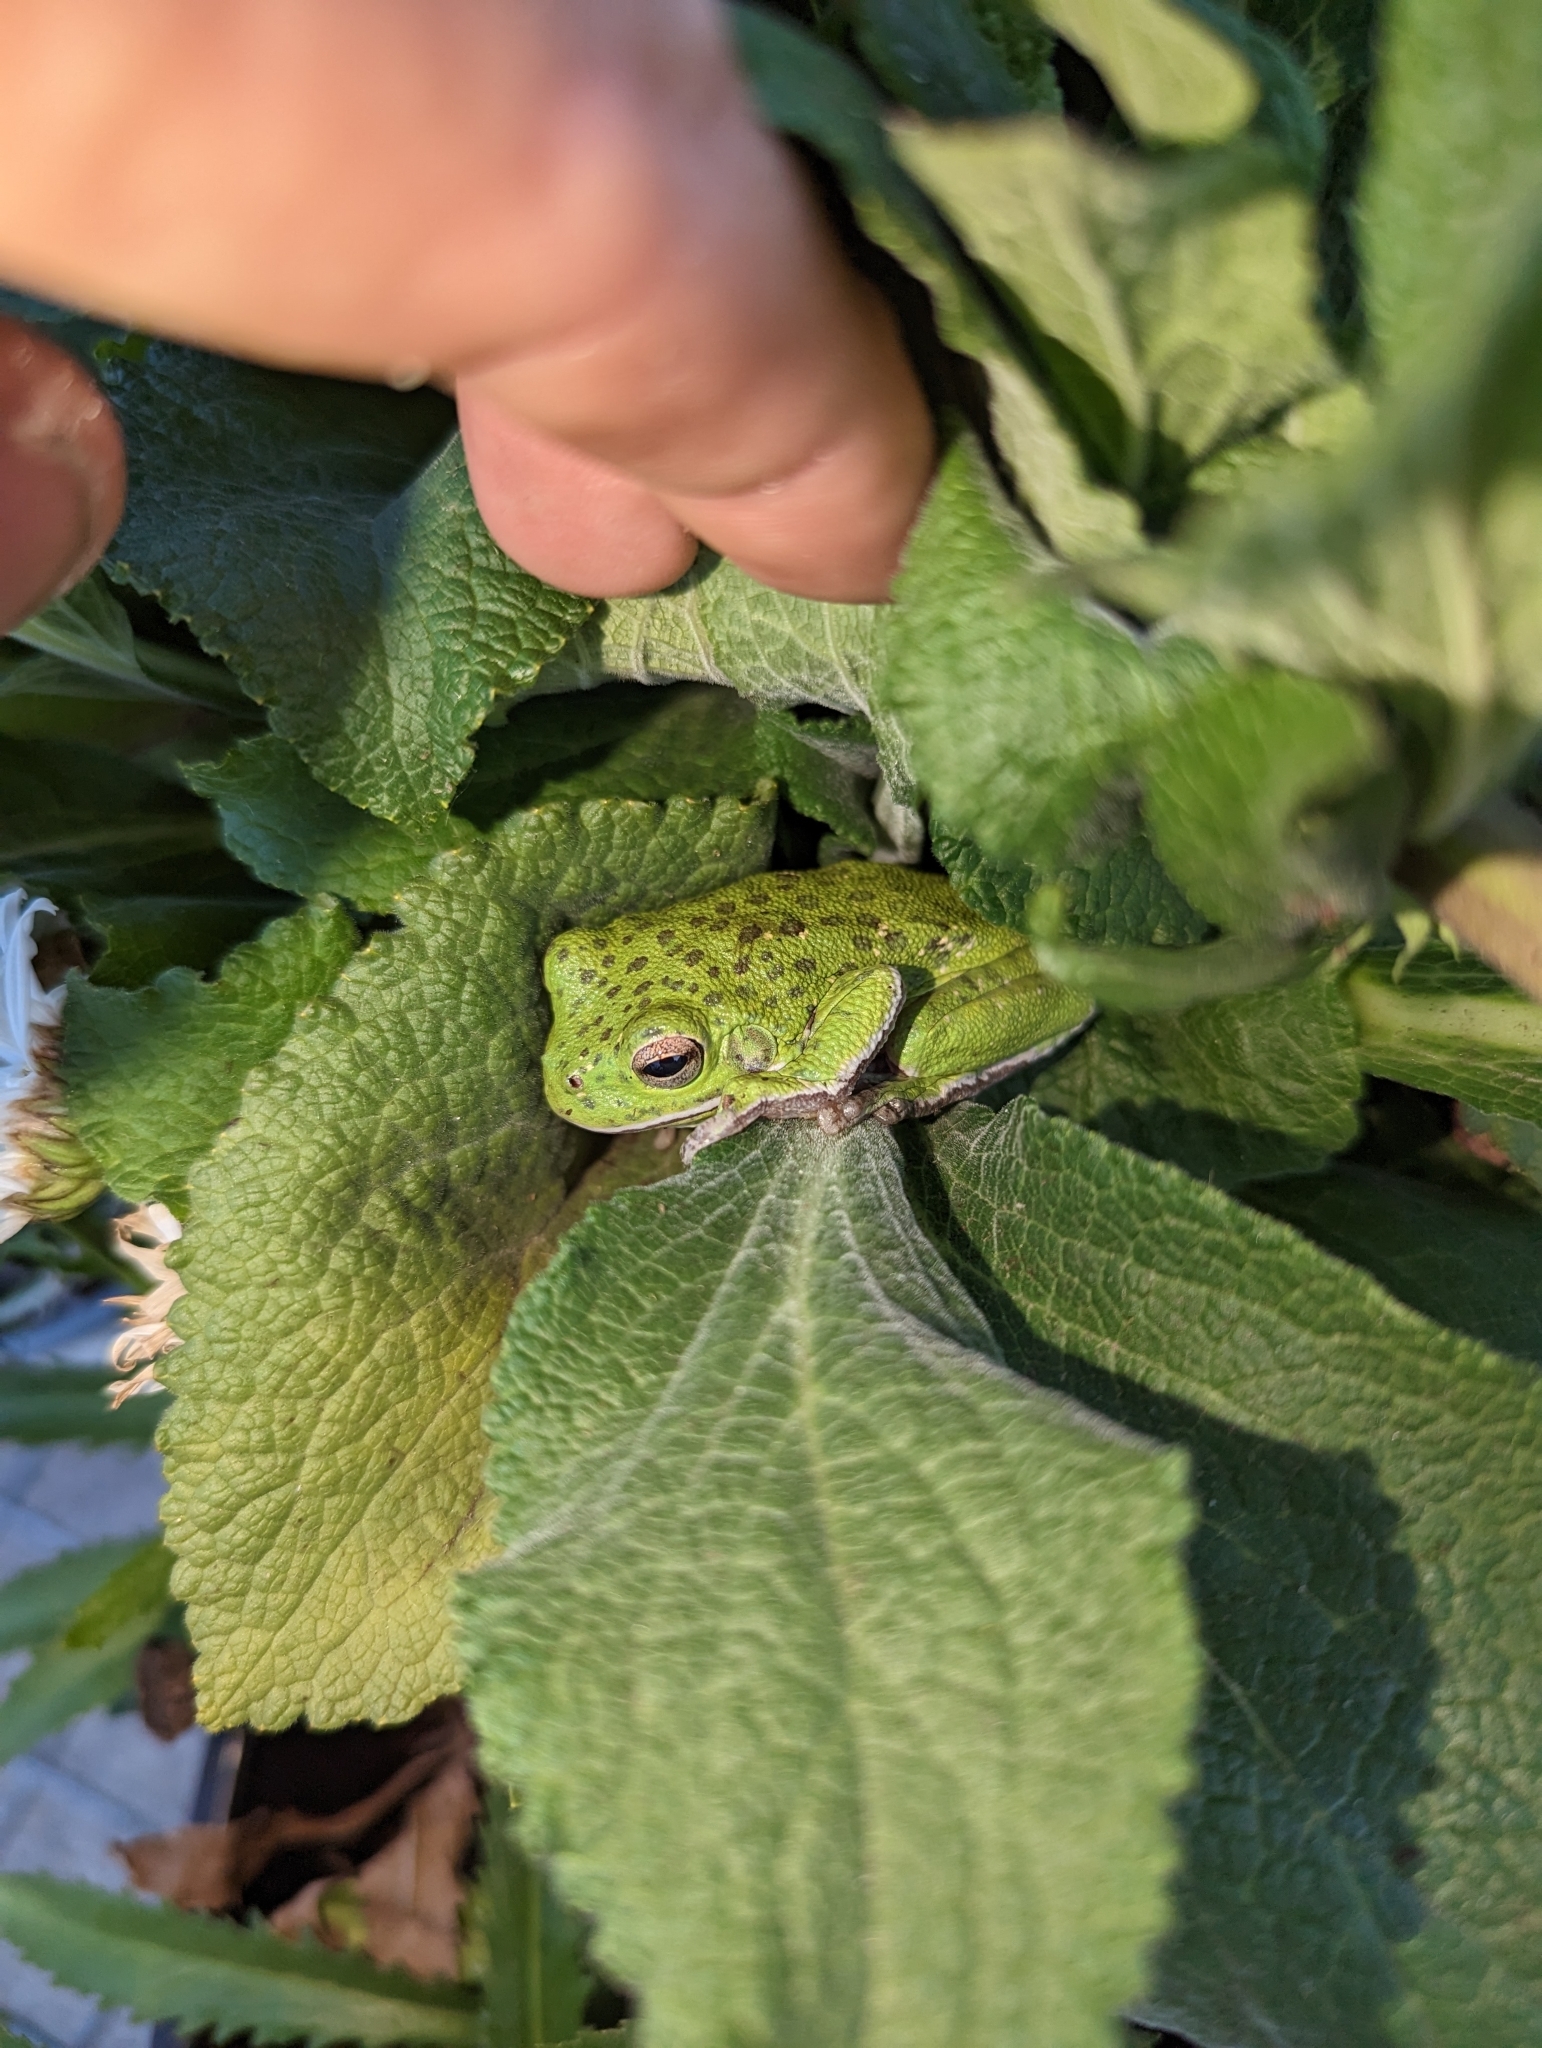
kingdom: Animalia
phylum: Chordata
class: Amphibia
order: Anura
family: Hylidae
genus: Dryophytes
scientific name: Dryophytes gratiosus
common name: Barking treefrog
